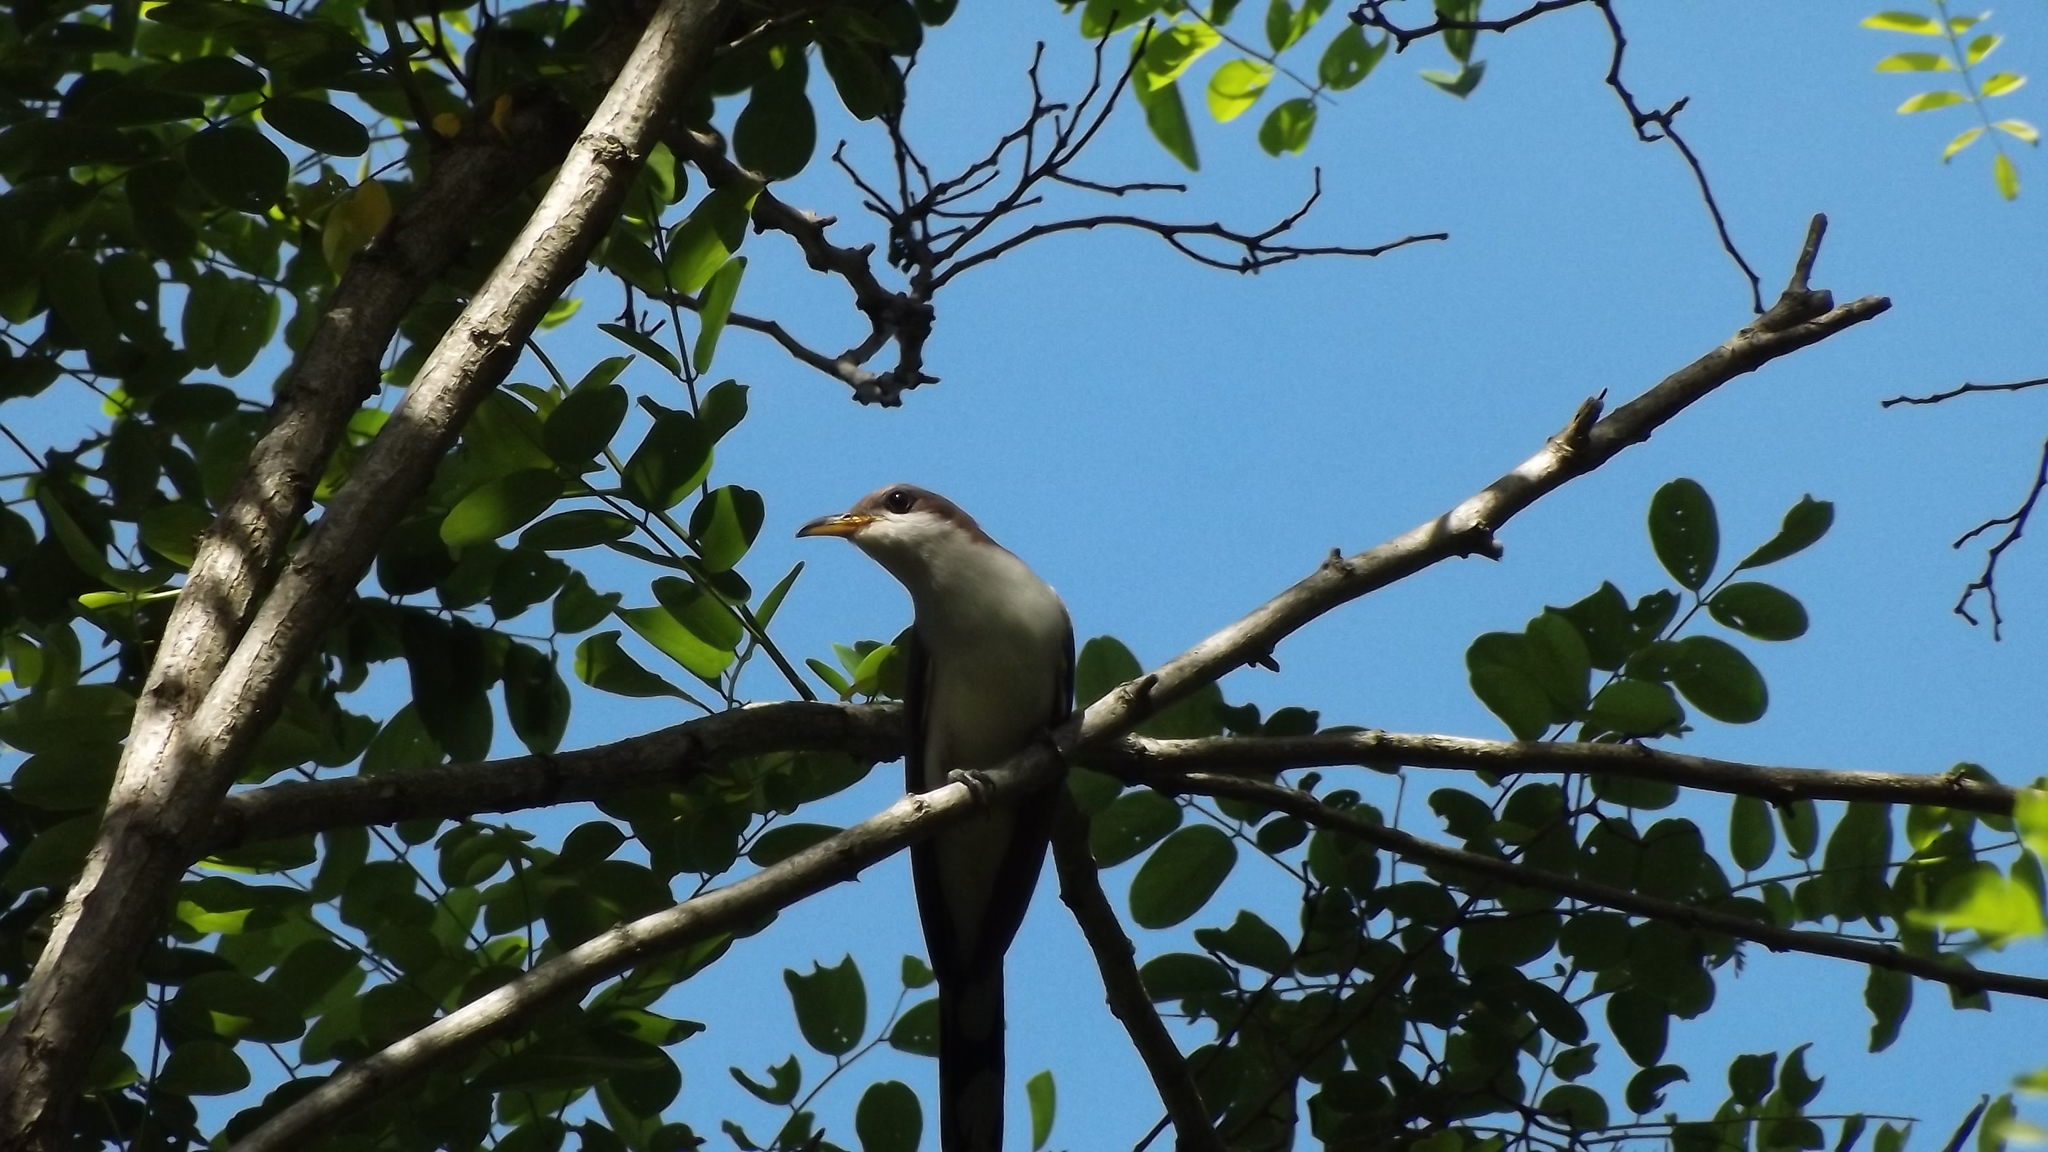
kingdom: Animalia
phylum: Chordata
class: Aves
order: Cuculiformes
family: Cuculidae
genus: Coccyzus
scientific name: Coccyzus americanus
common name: Yellow-billed cuckoo
